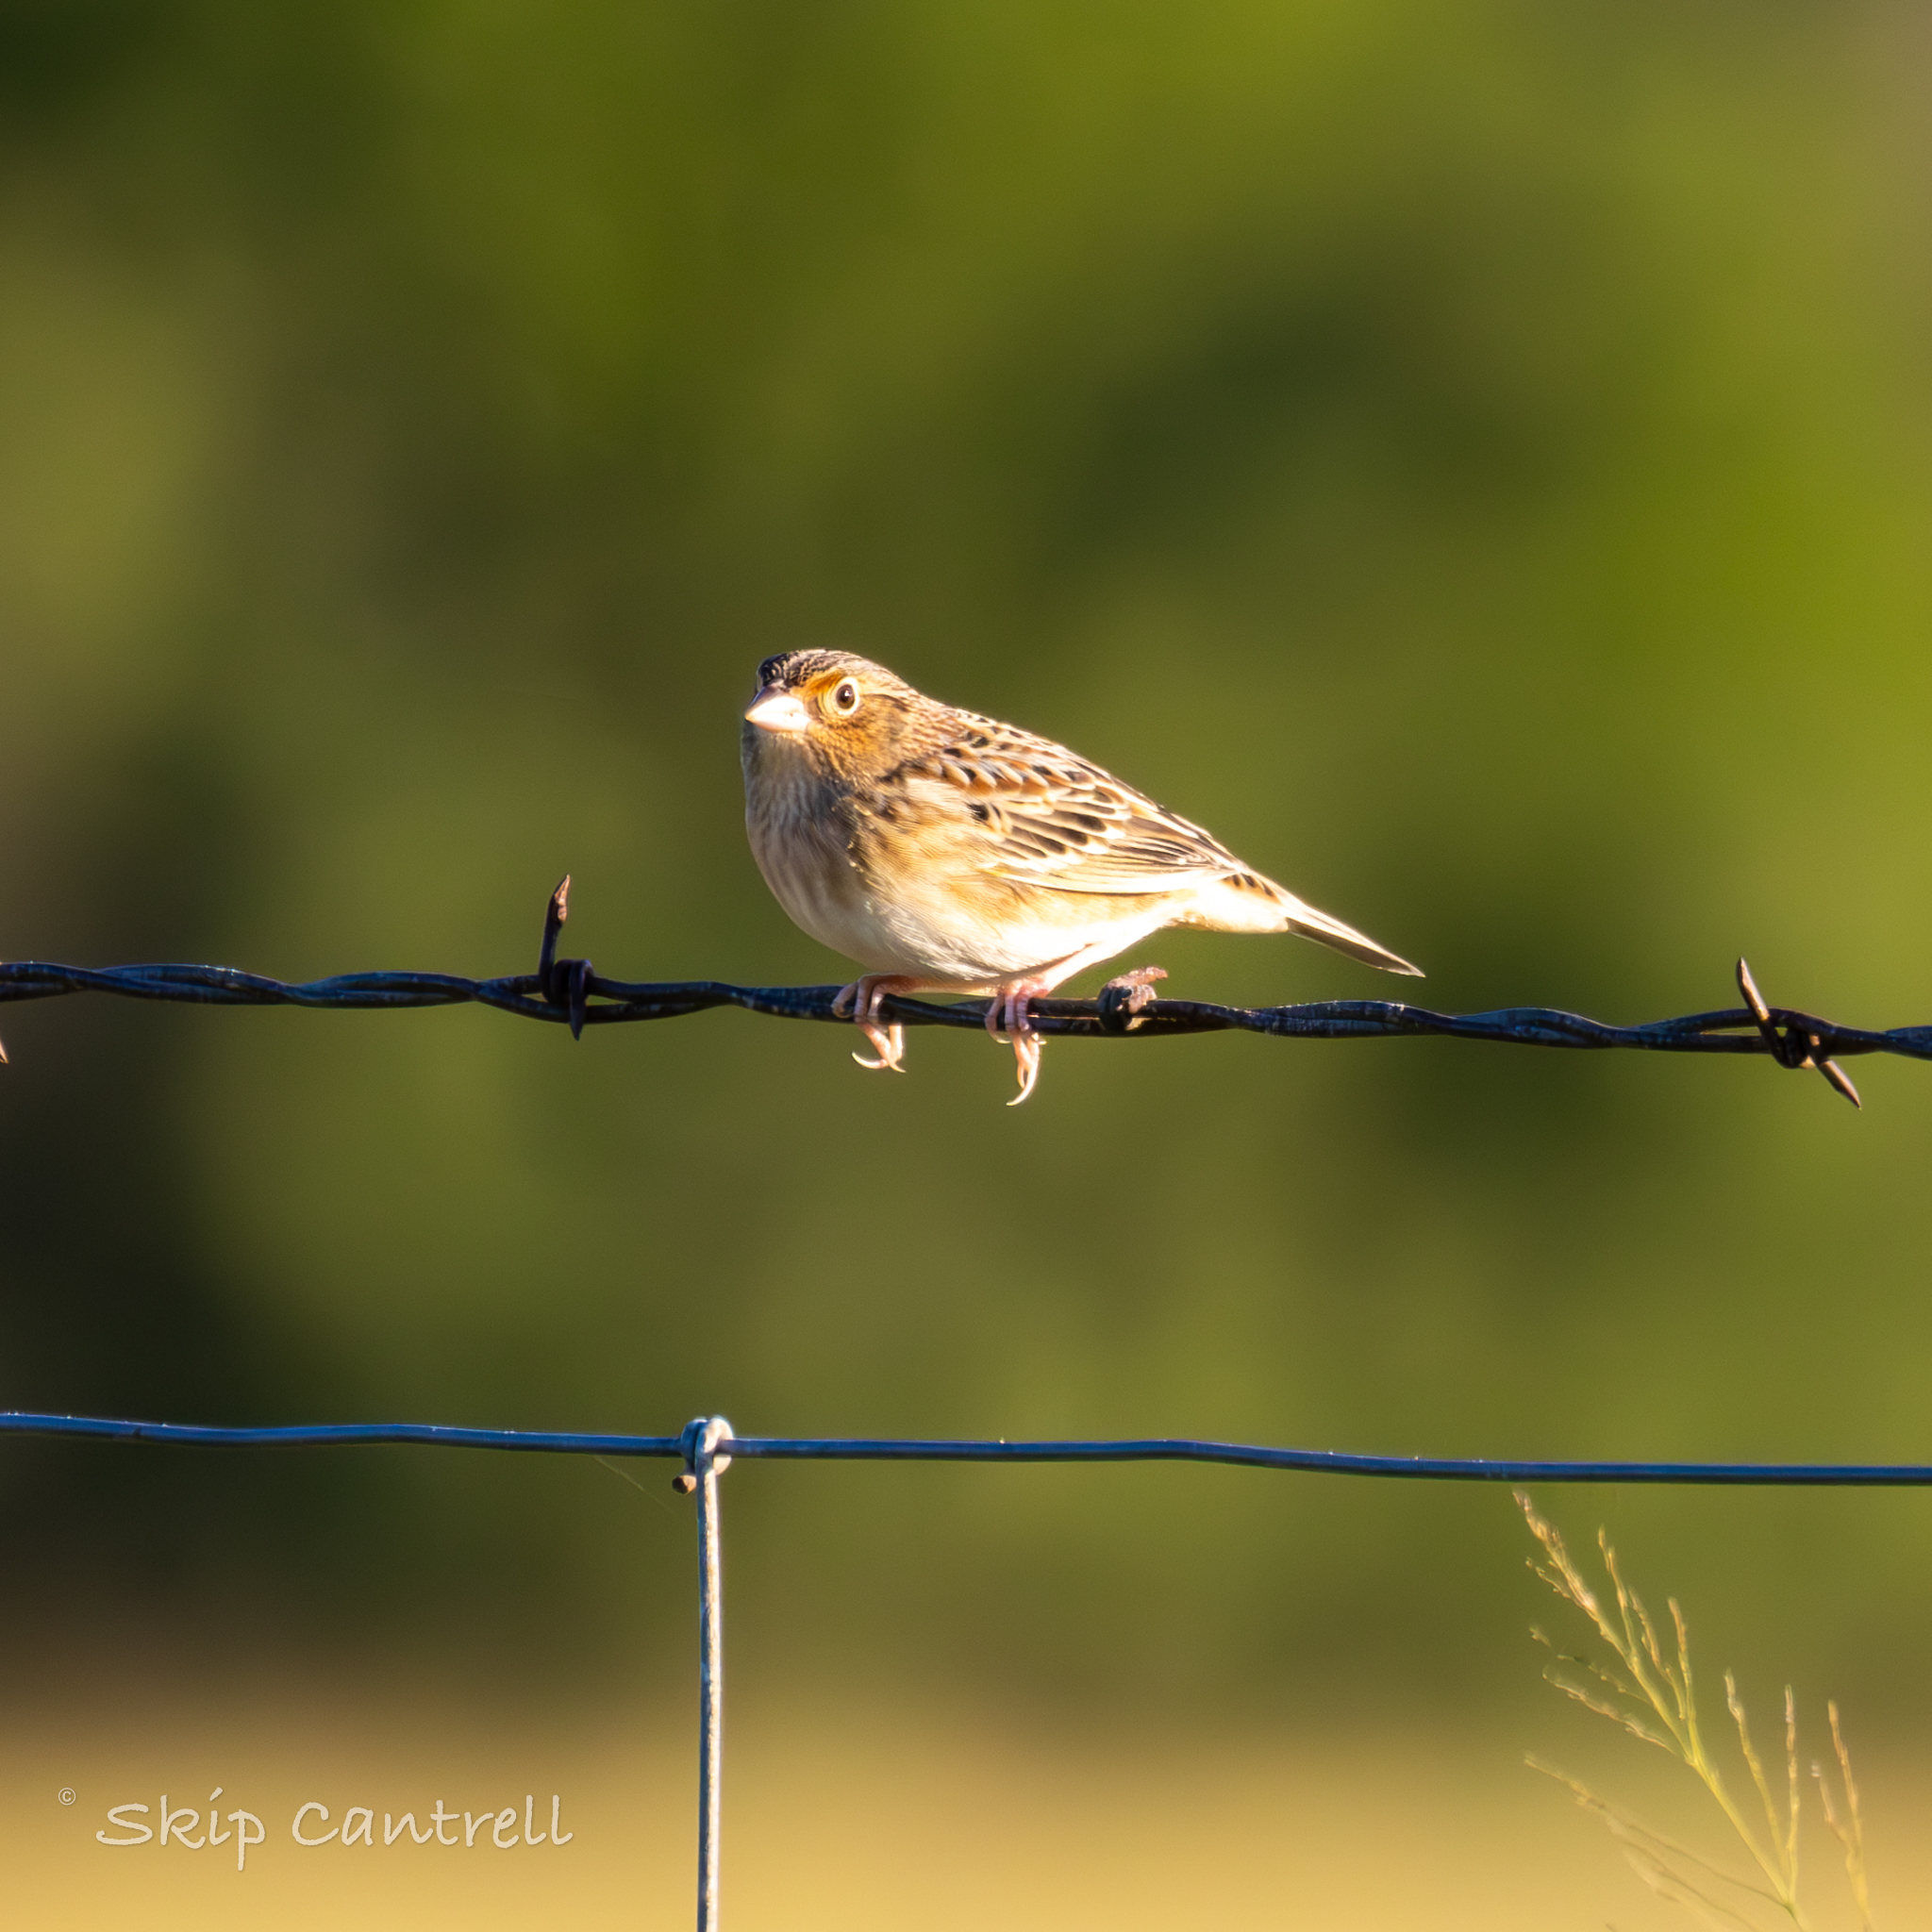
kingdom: Animalia
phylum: Chordata
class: Aves
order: Passeriformes
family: Passerellidae
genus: Ammodramus
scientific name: Ammodramus savannarum
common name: Grasshopper sparrow
